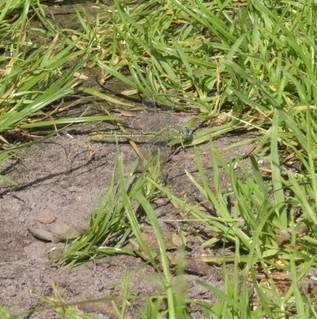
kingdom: Animalia
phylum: Arthropoda
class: Insecta
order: Odonata
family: Gomphidae
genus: Gomphus
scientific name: Gomphus pulchellus
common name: Western clubtail
